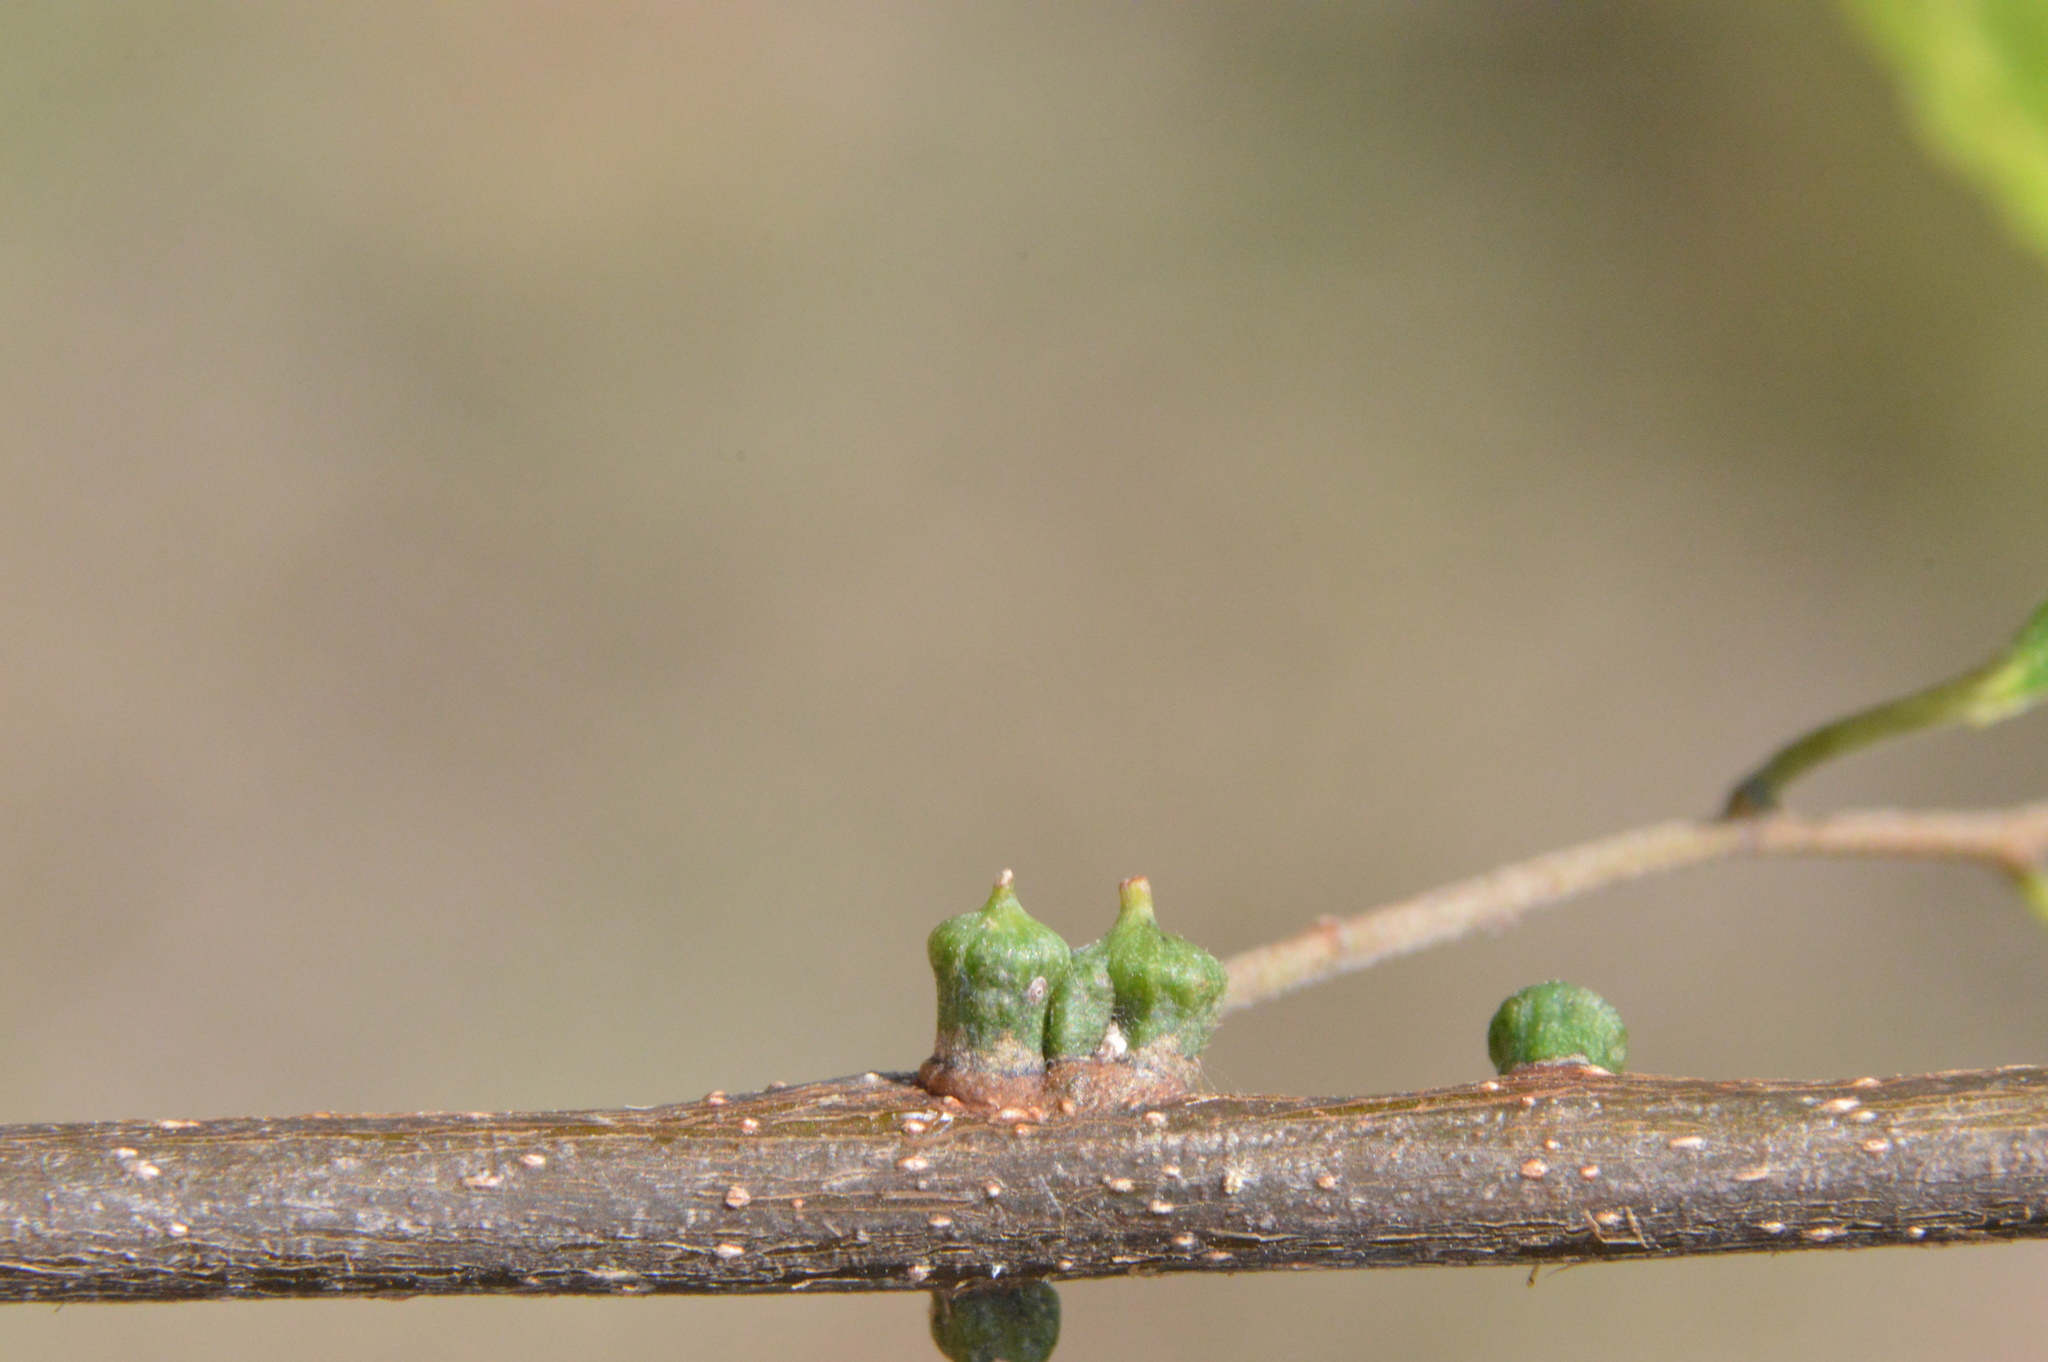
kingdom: Animalia
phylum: Arthropoda
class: Insecta
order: Diptera
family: Cecidomyiidae
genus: Celticecis
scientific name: Celticecis ramicola
